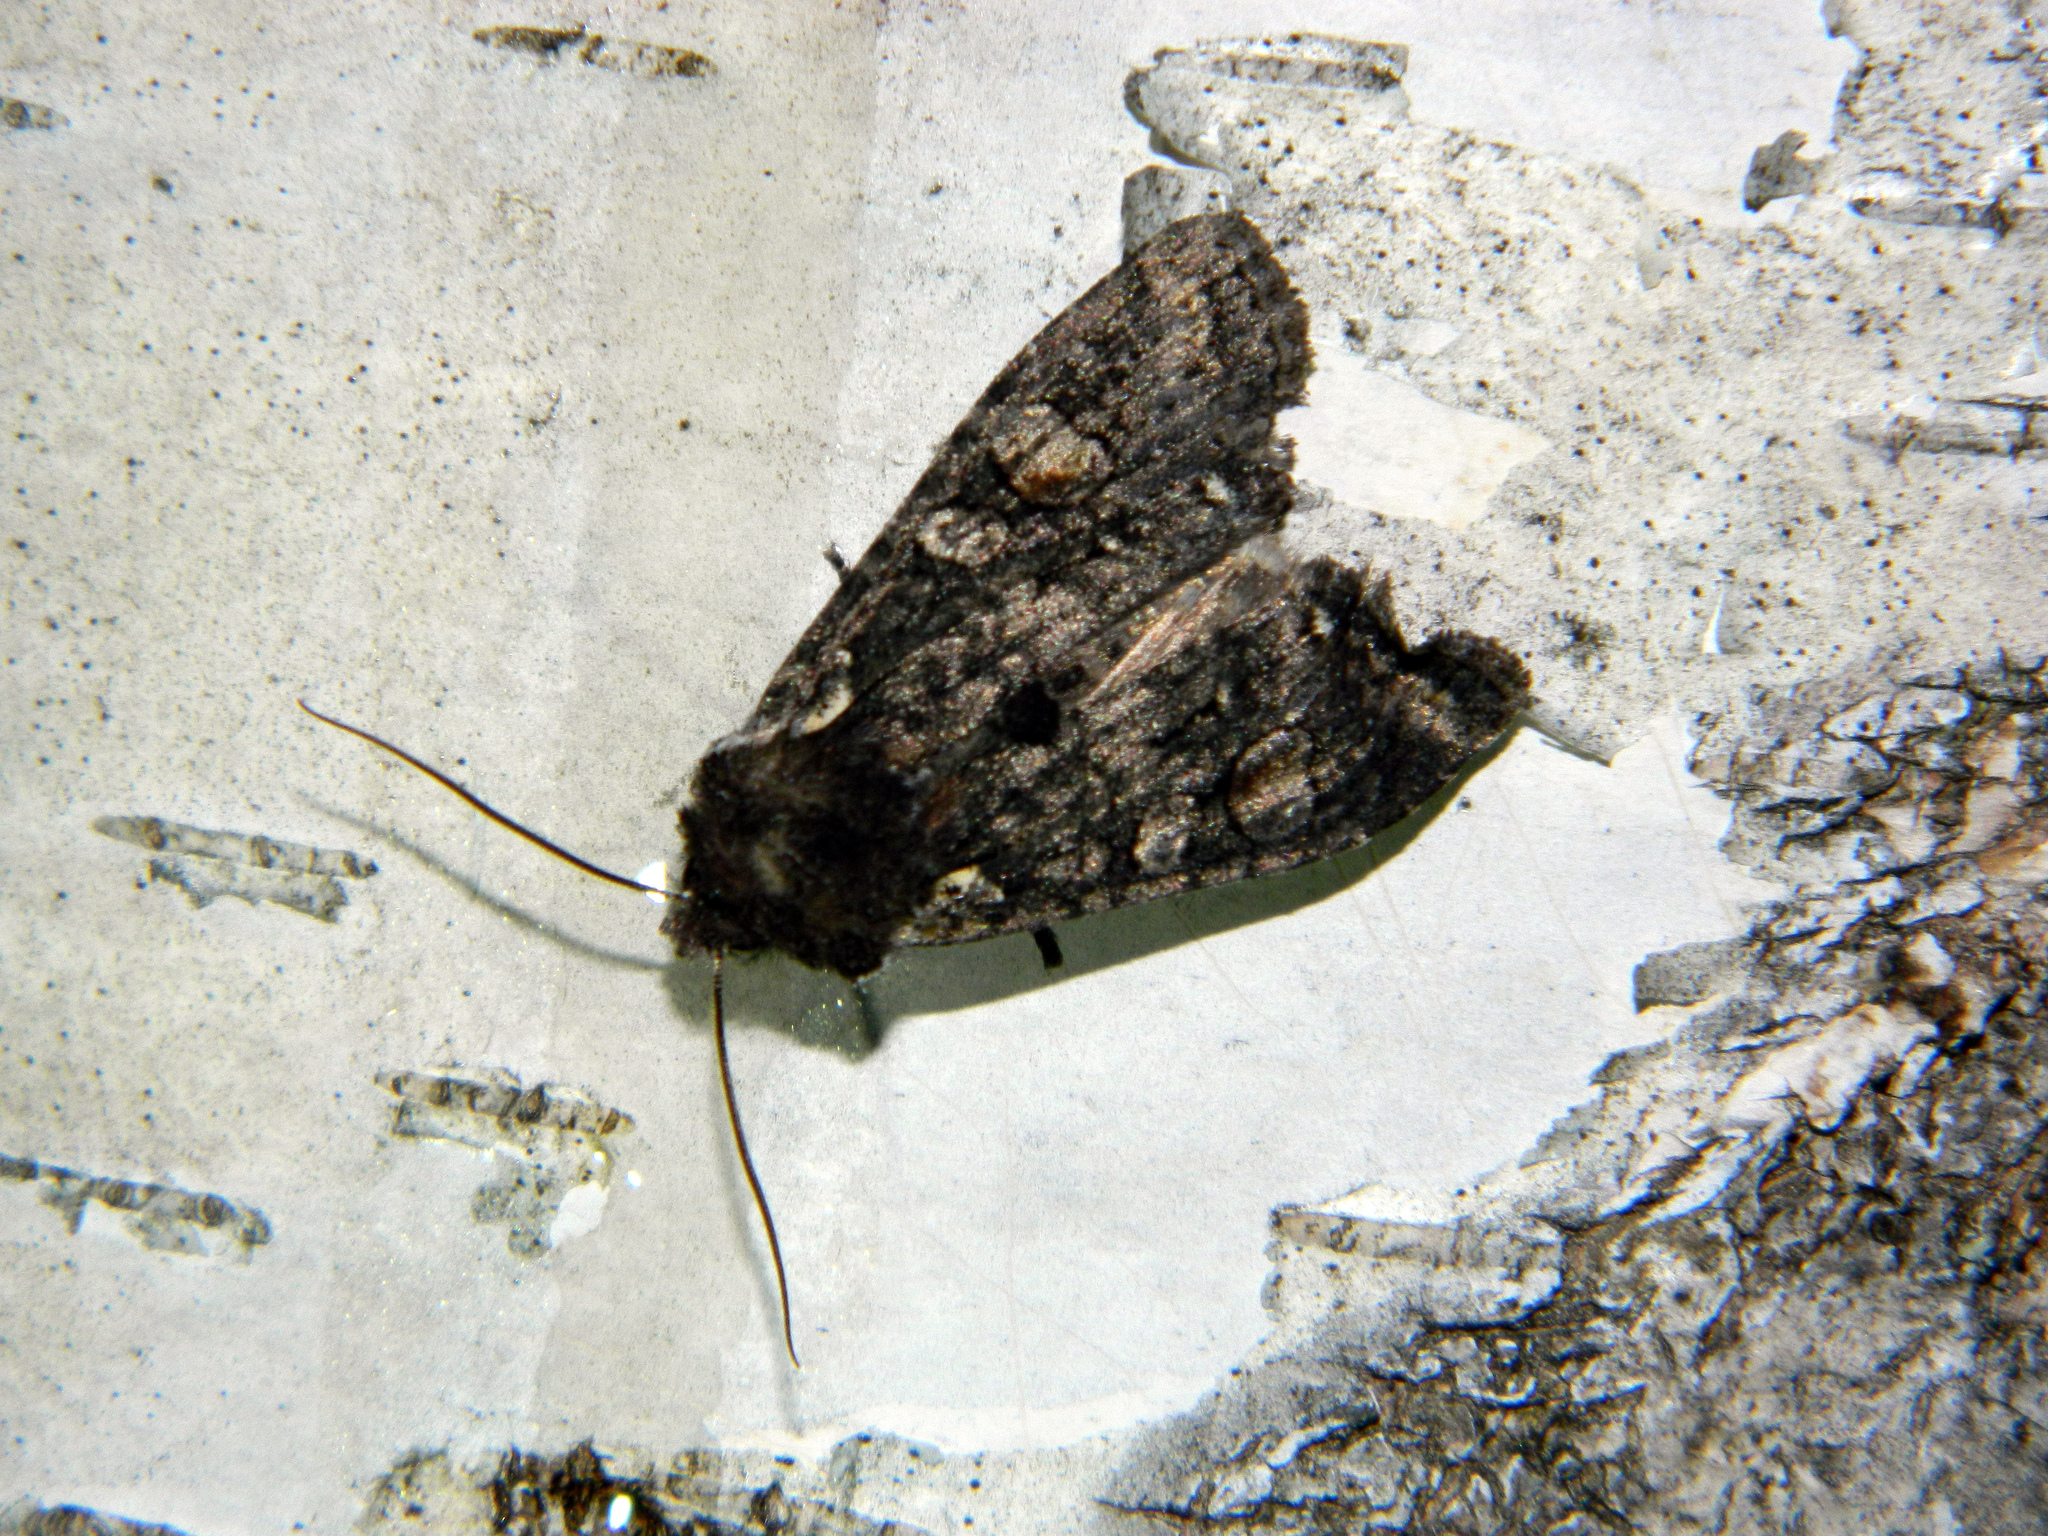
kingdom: Animalia
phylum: Arthropoda
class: Insecta
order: Lepidoptera
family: Noctuidae
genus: Lithophane
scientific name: Lithophane pexata
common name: Plush-naped pinion moth
